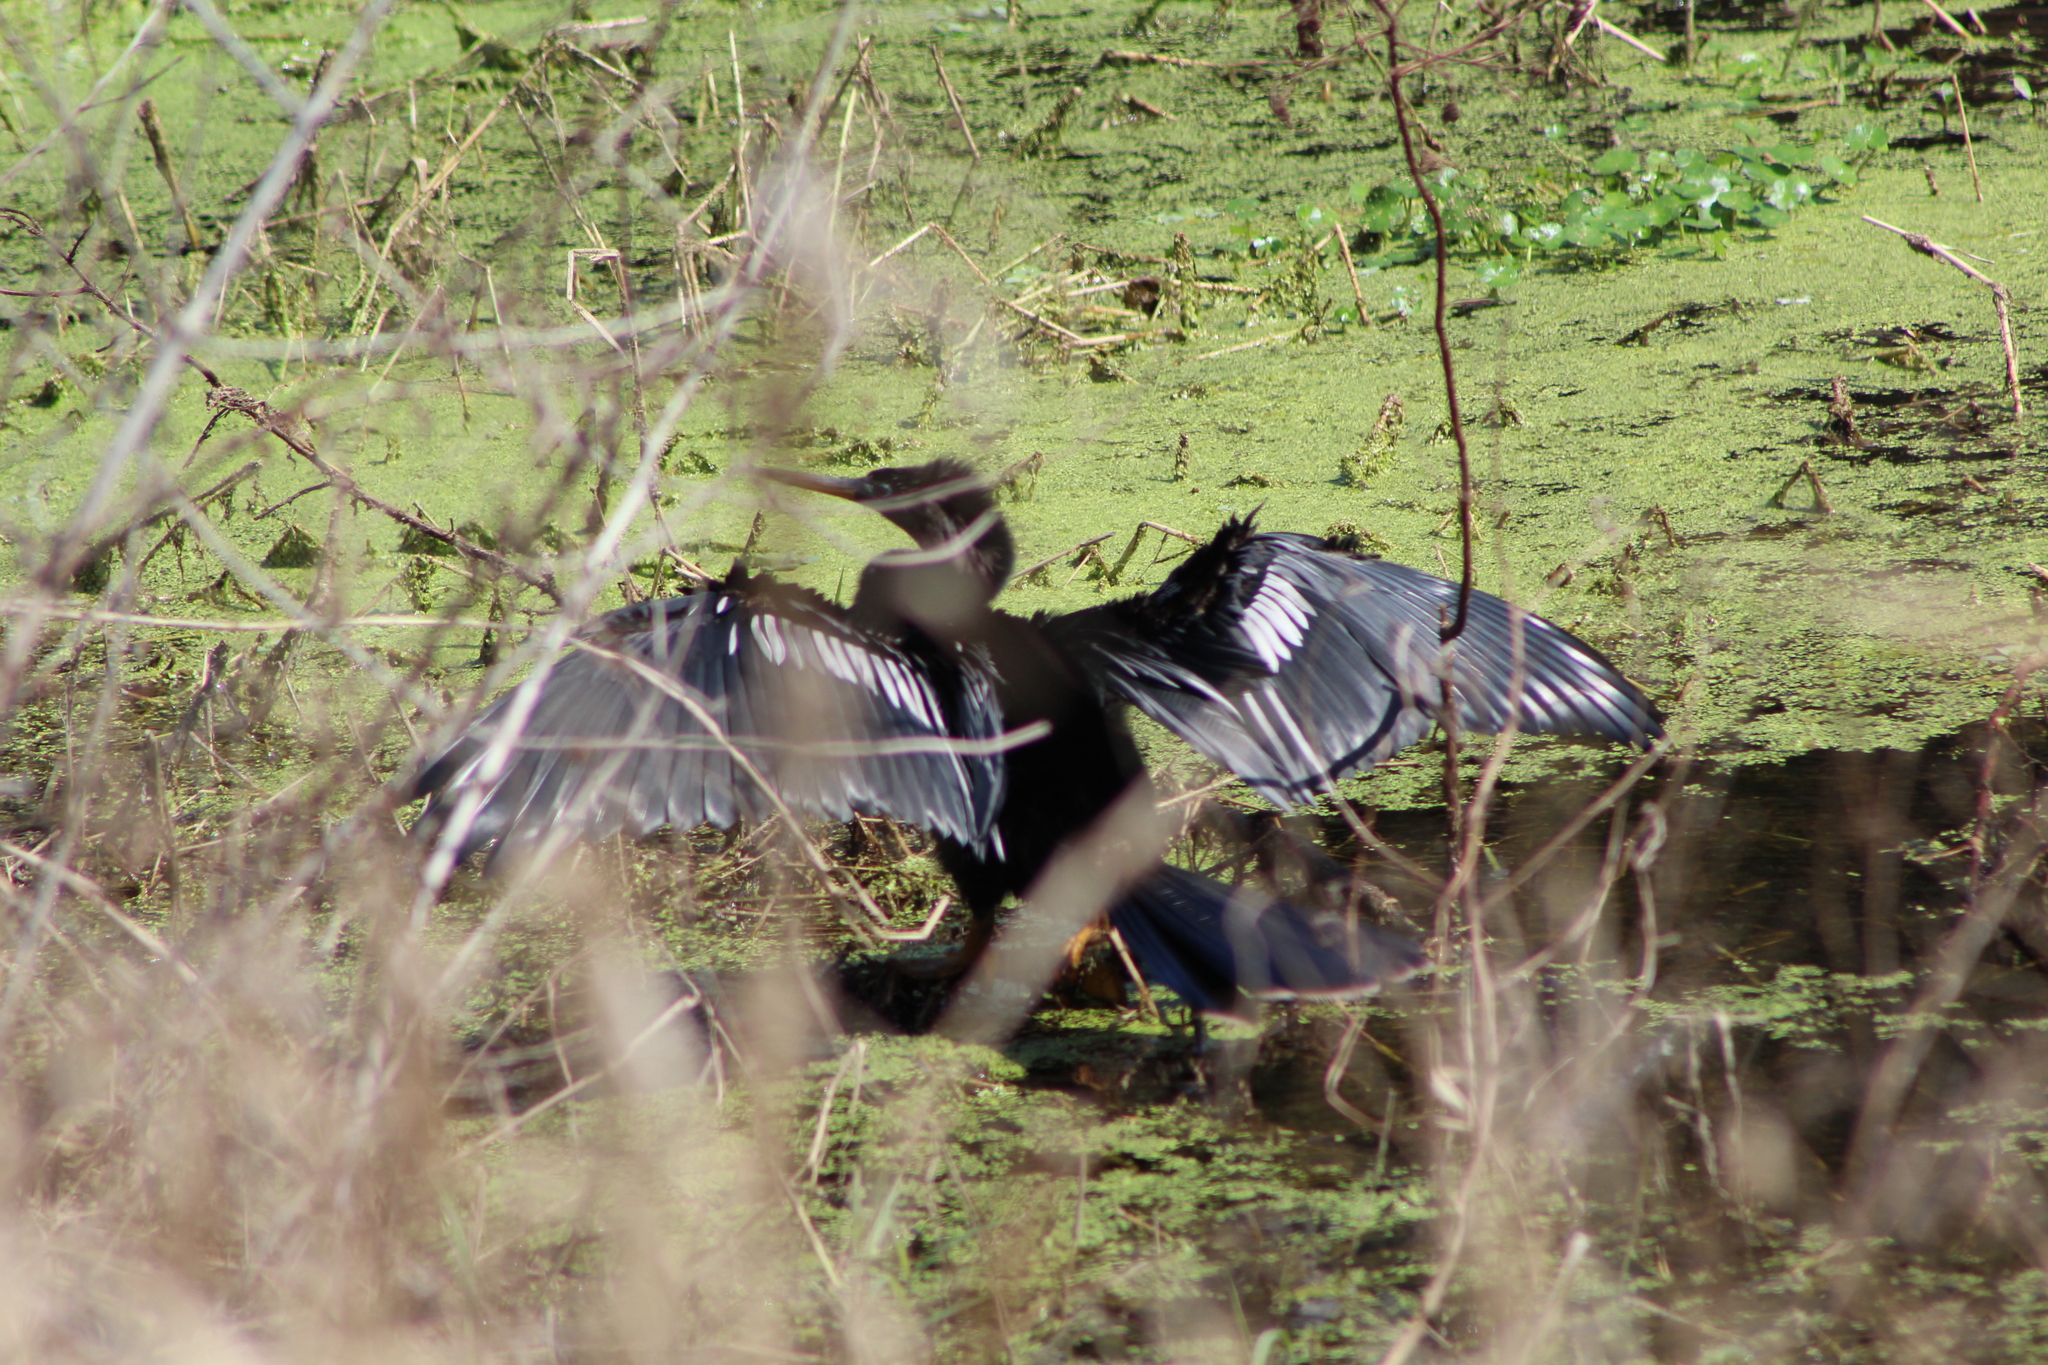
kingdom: Animalia
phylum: Chordata
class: Aves
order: Suliformes
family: Anhingidae
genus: Anhinga
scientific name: Anhinga anhinga
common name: Anhinga
